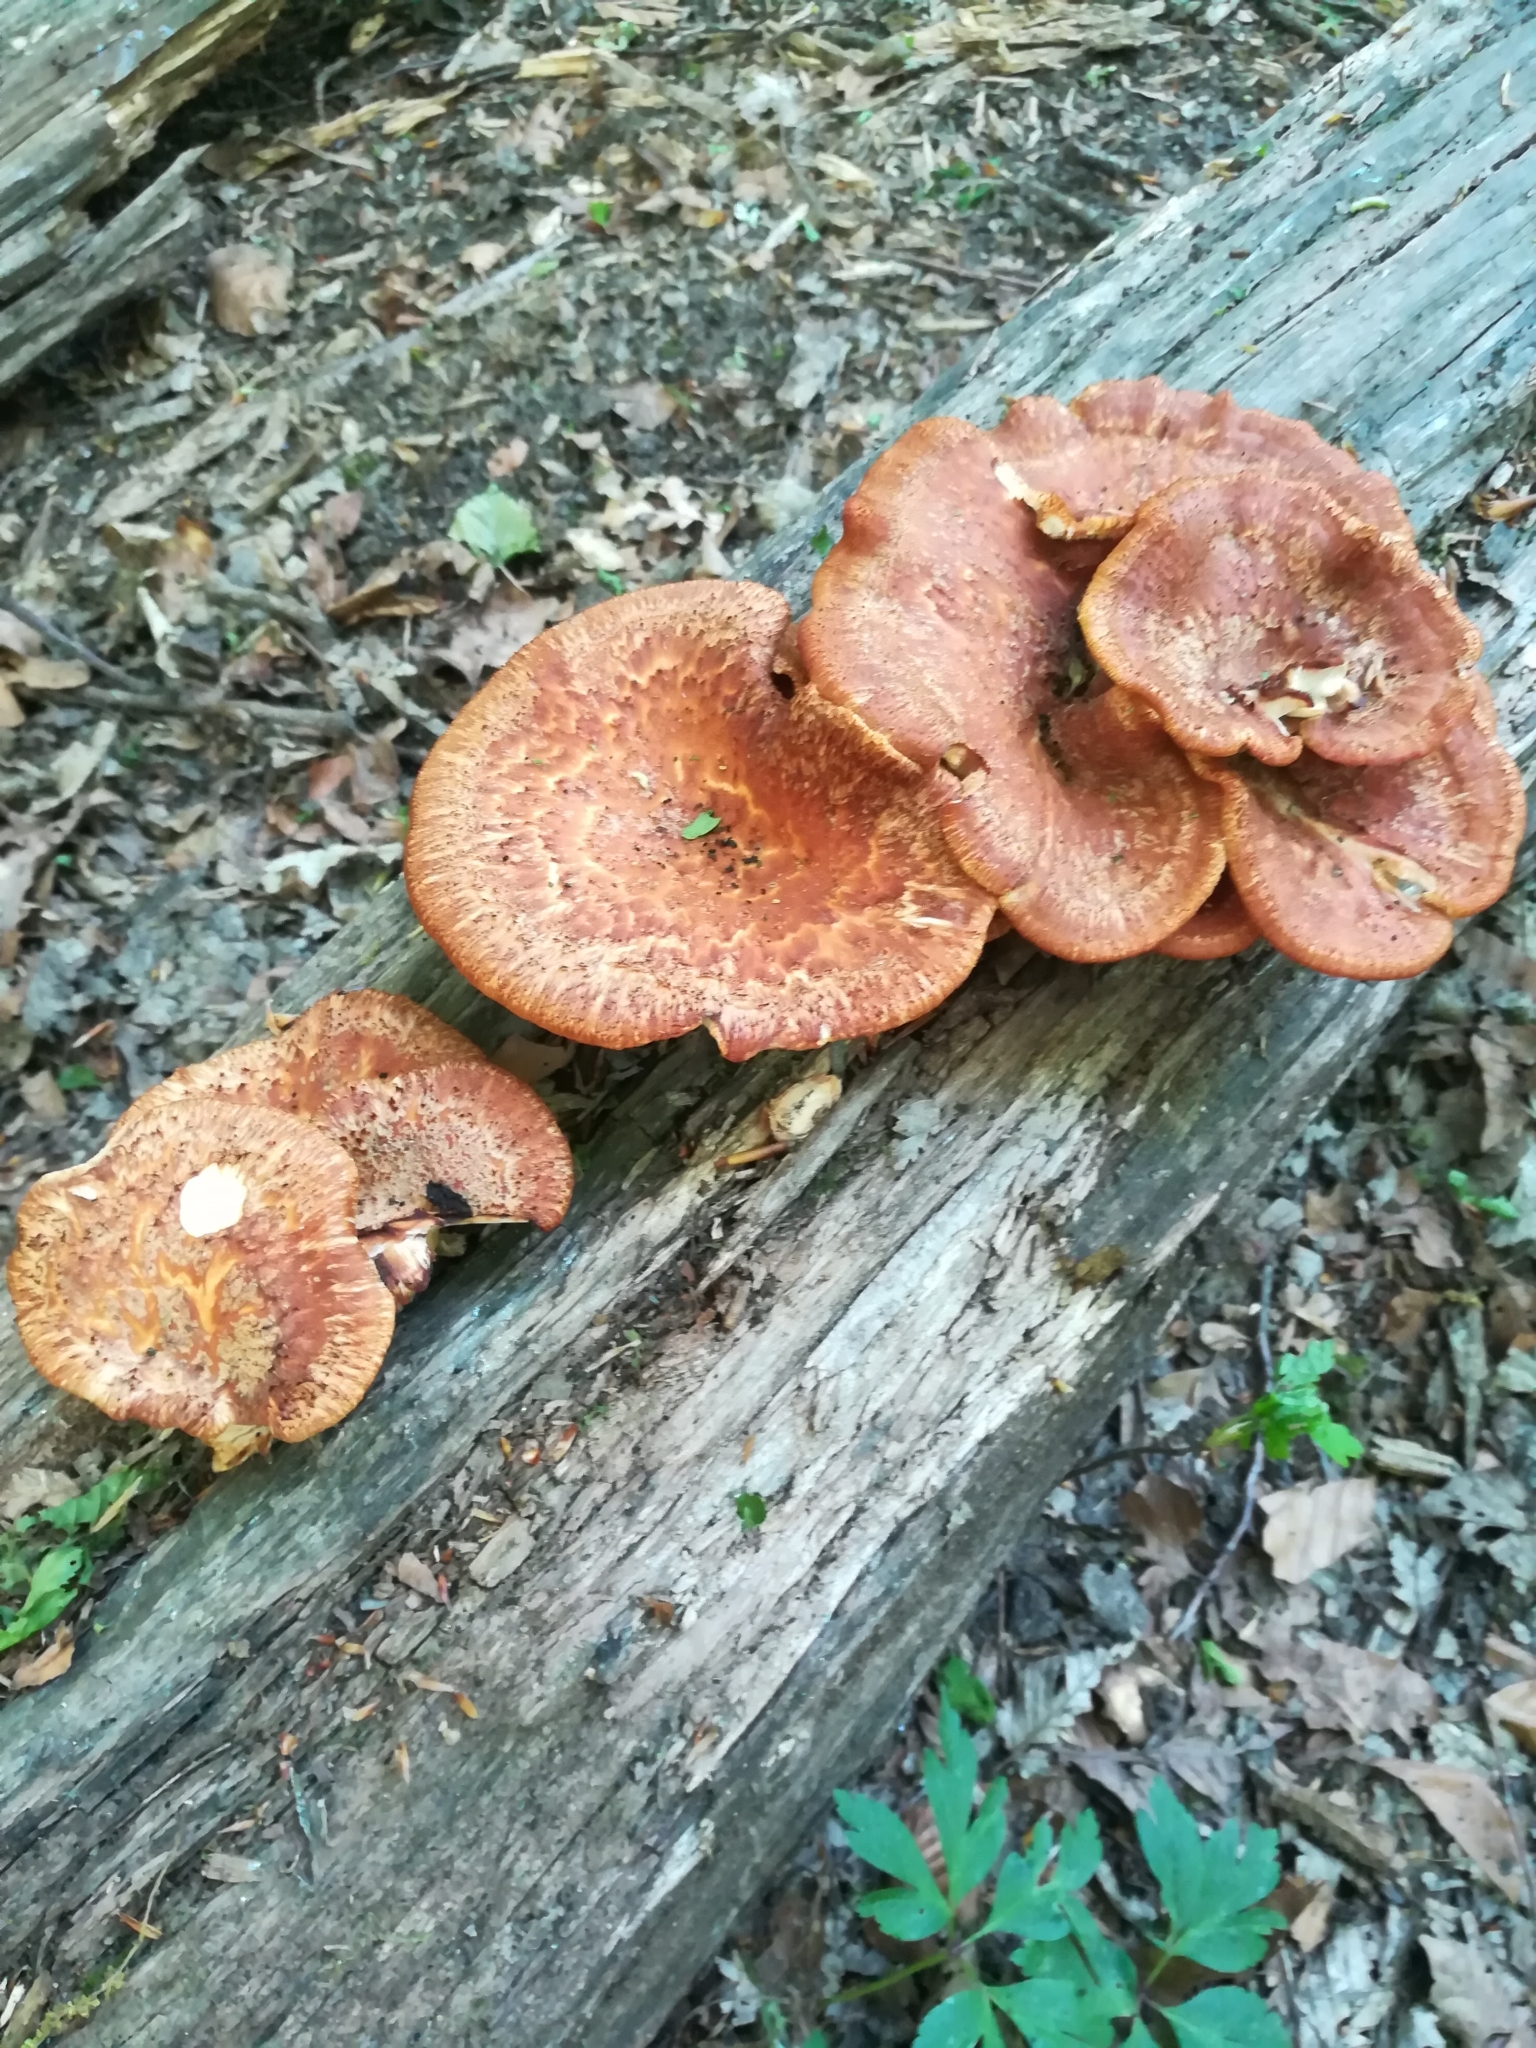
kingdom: Fungi
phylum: Basidiomycota
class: Agaricomycetes
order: Polyporales
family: Polyporaceae
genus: Cerioporus
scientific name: Cerioporus squamosus
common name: Dryad's saddle
